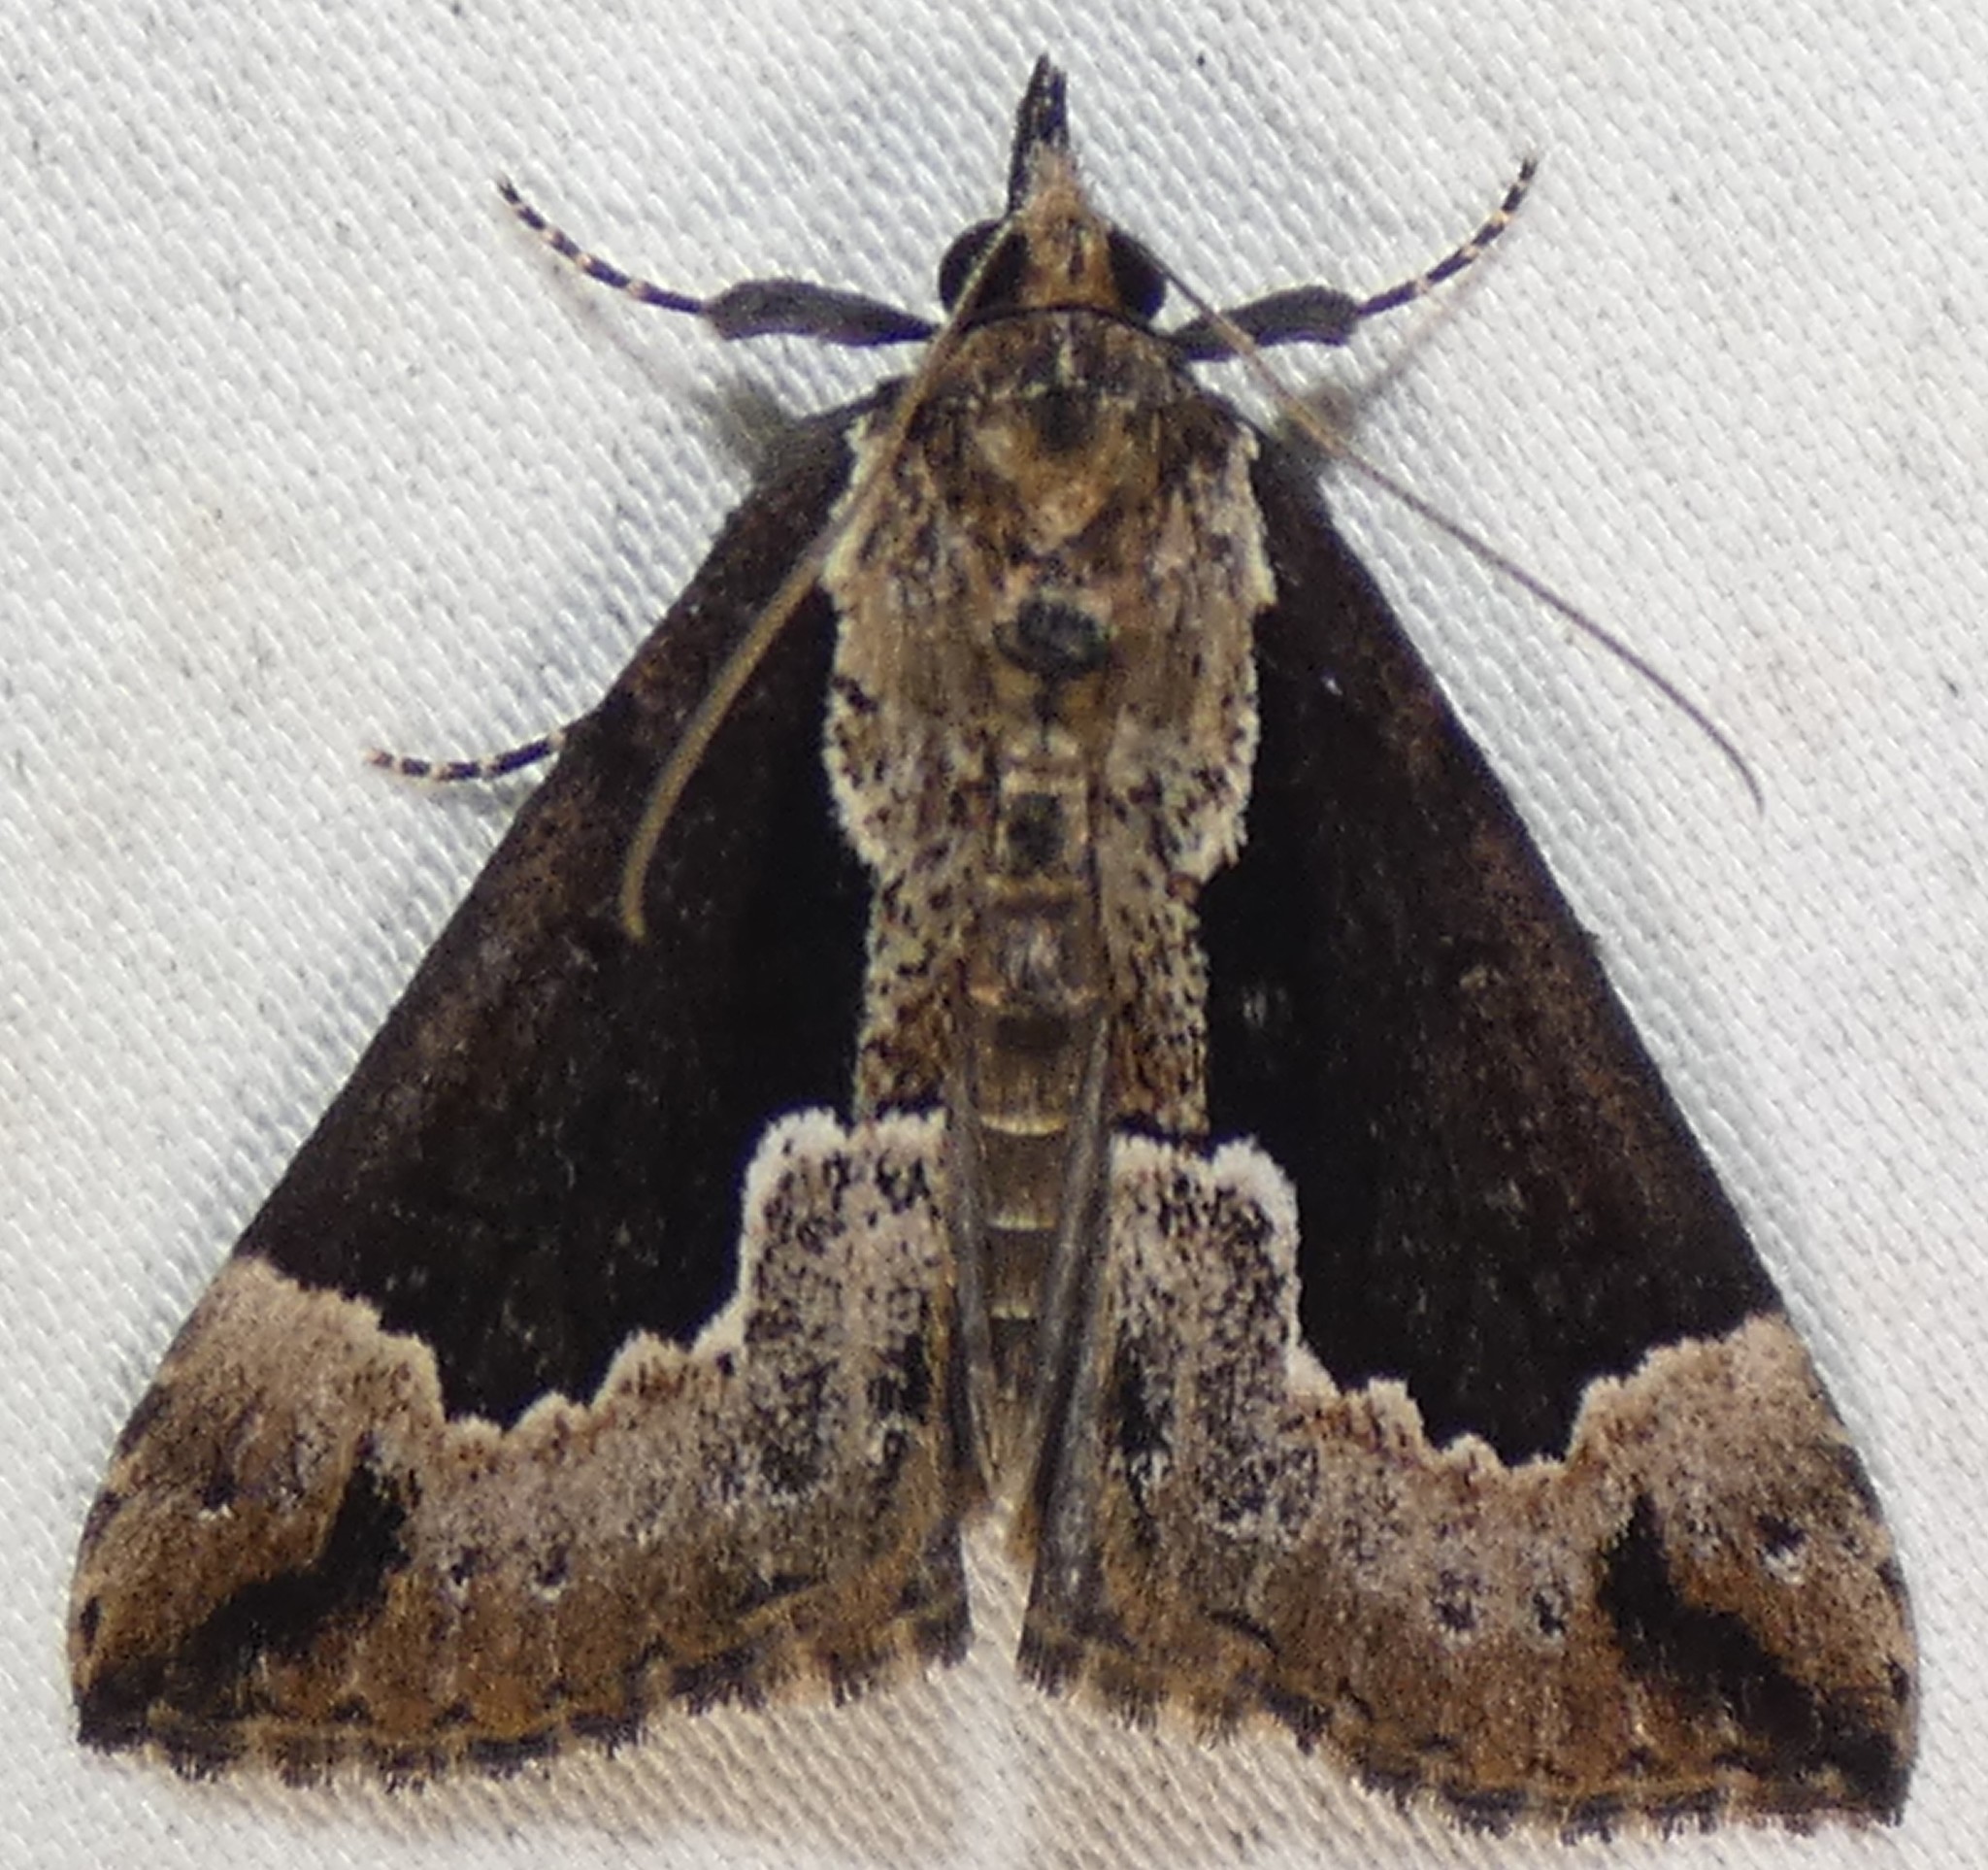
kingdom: Animalia
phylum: Arthropoda
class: Insecta
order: Lepidoptera
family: Erebidae
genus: Hypena
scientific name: Hypena baltimoralis
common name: Baltimore snout
